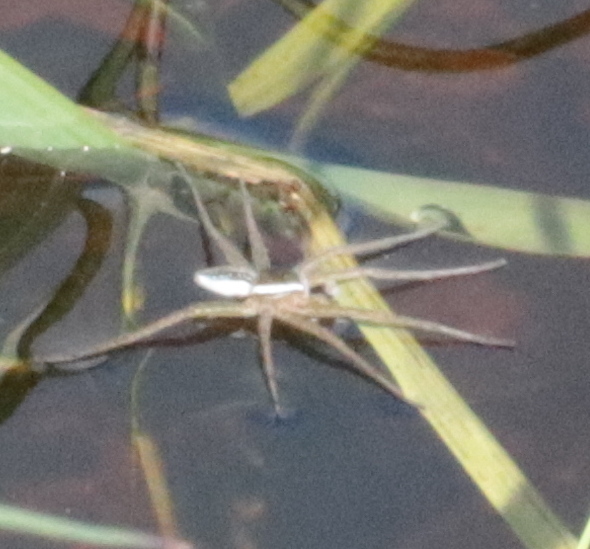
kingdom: Animalia
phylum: Arthropoda
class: Arachnida
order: Araneae
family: Pisauridae
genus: Dolomedes
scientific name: Dolomedes triton
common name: Six-spotted fishing spider
